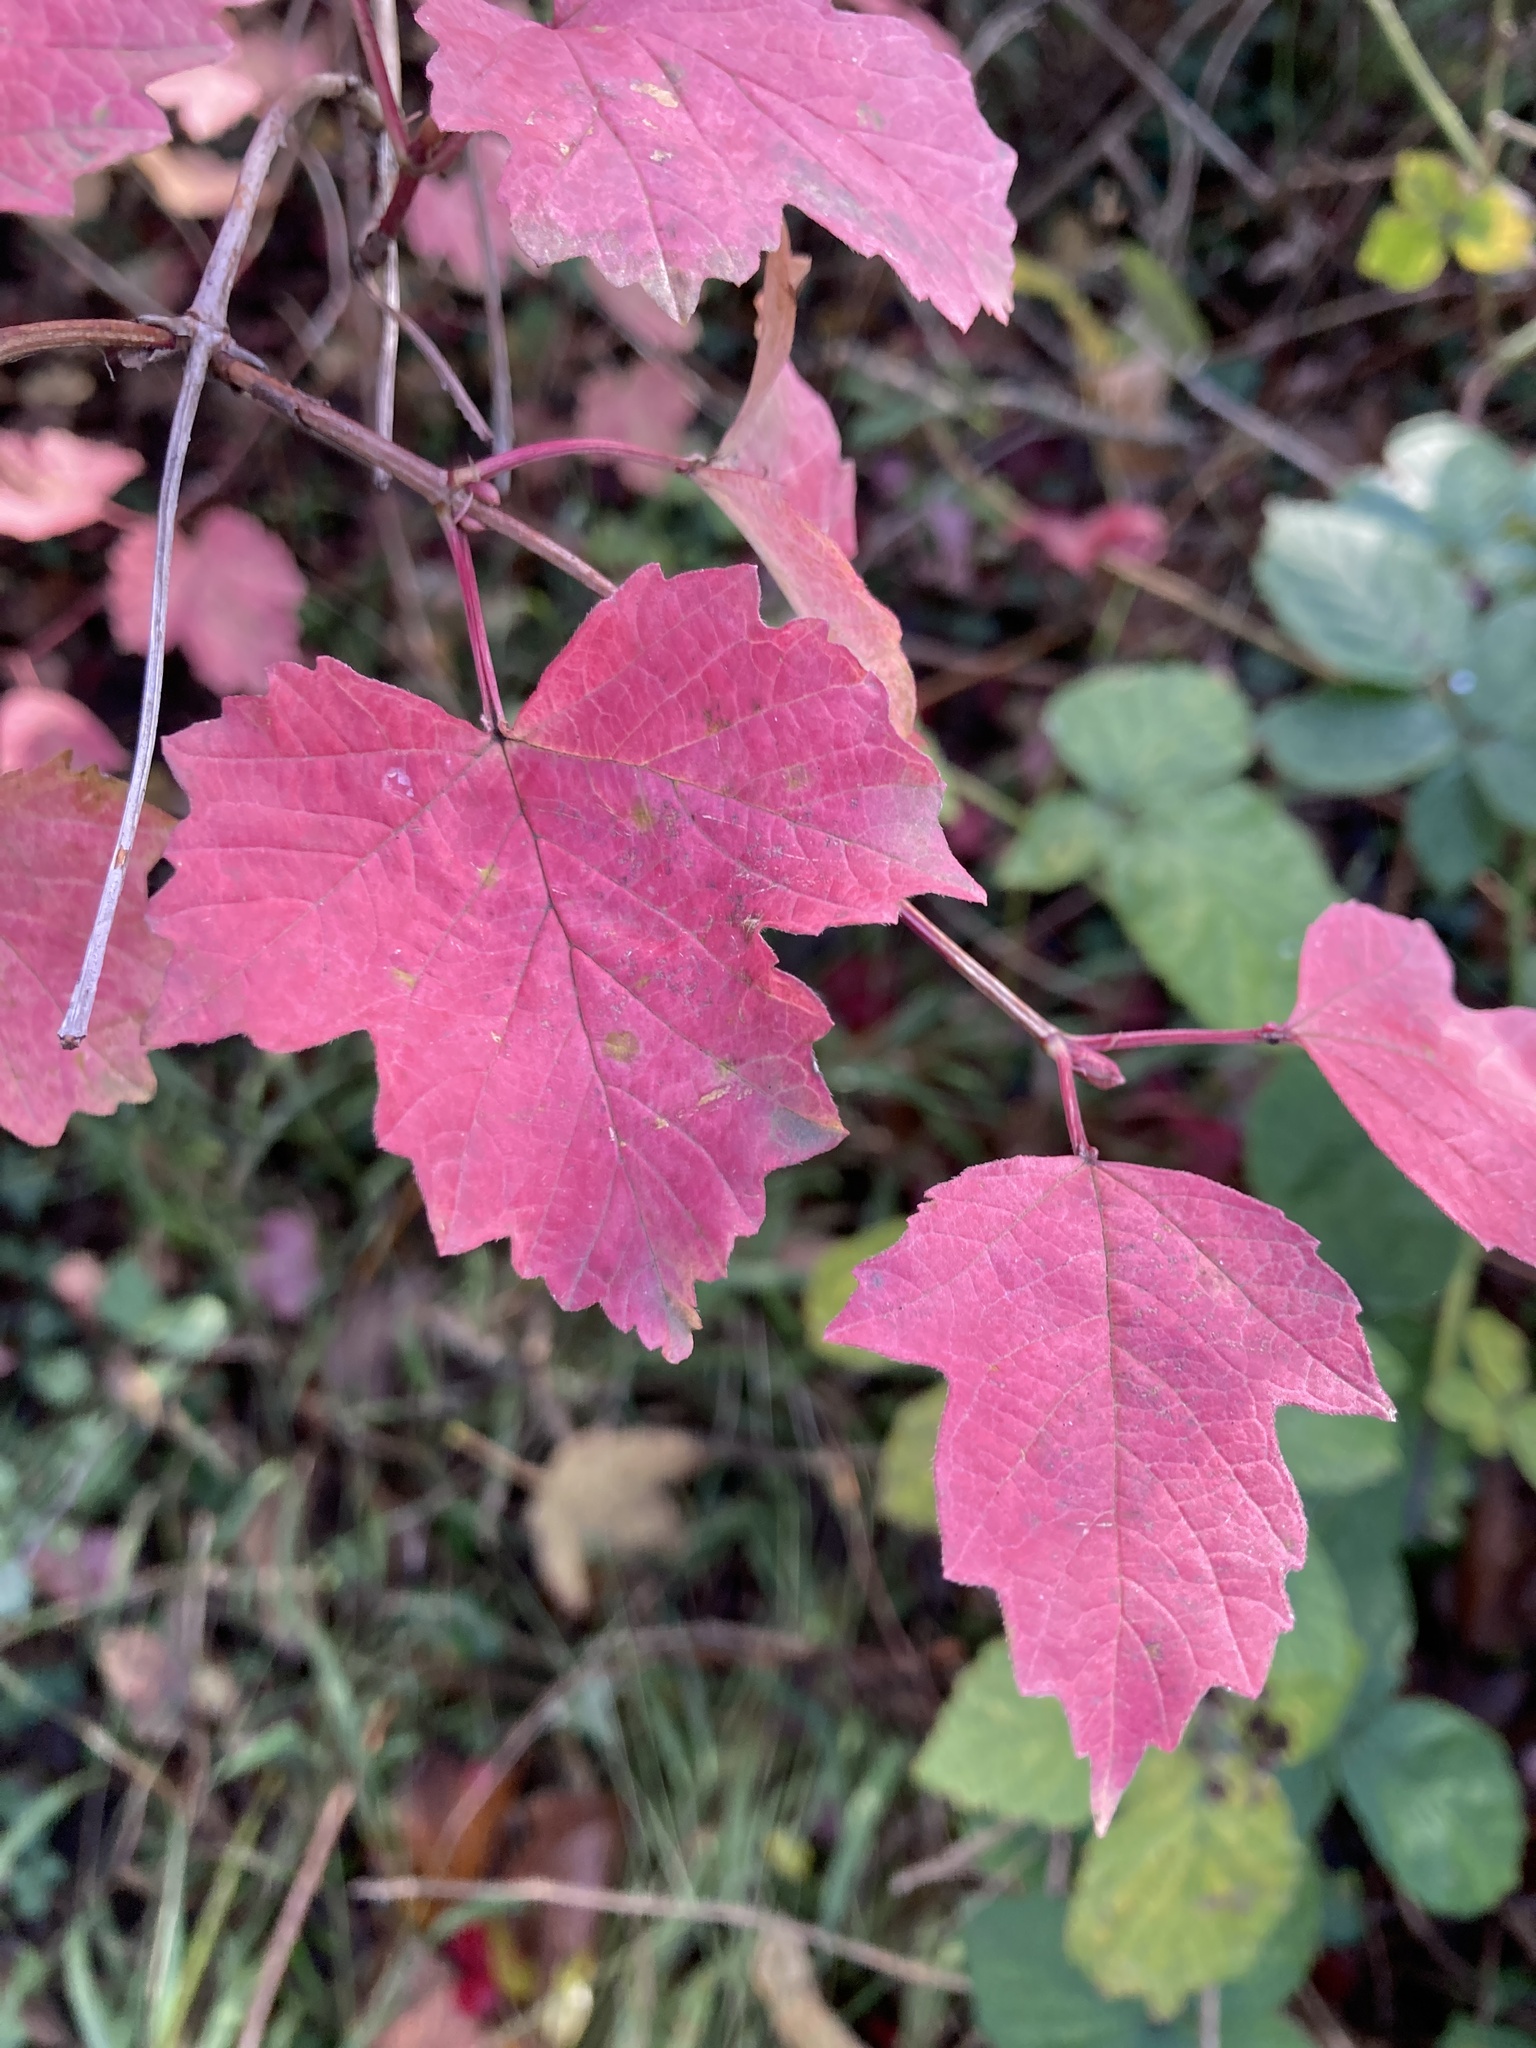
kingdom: Plantae
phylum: Tracheophyta
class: Magnoliopsida
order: Dipsacales
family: Viburnaceae
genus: Viburnum
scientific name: Viburnum opulus
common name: Guelder-rose
